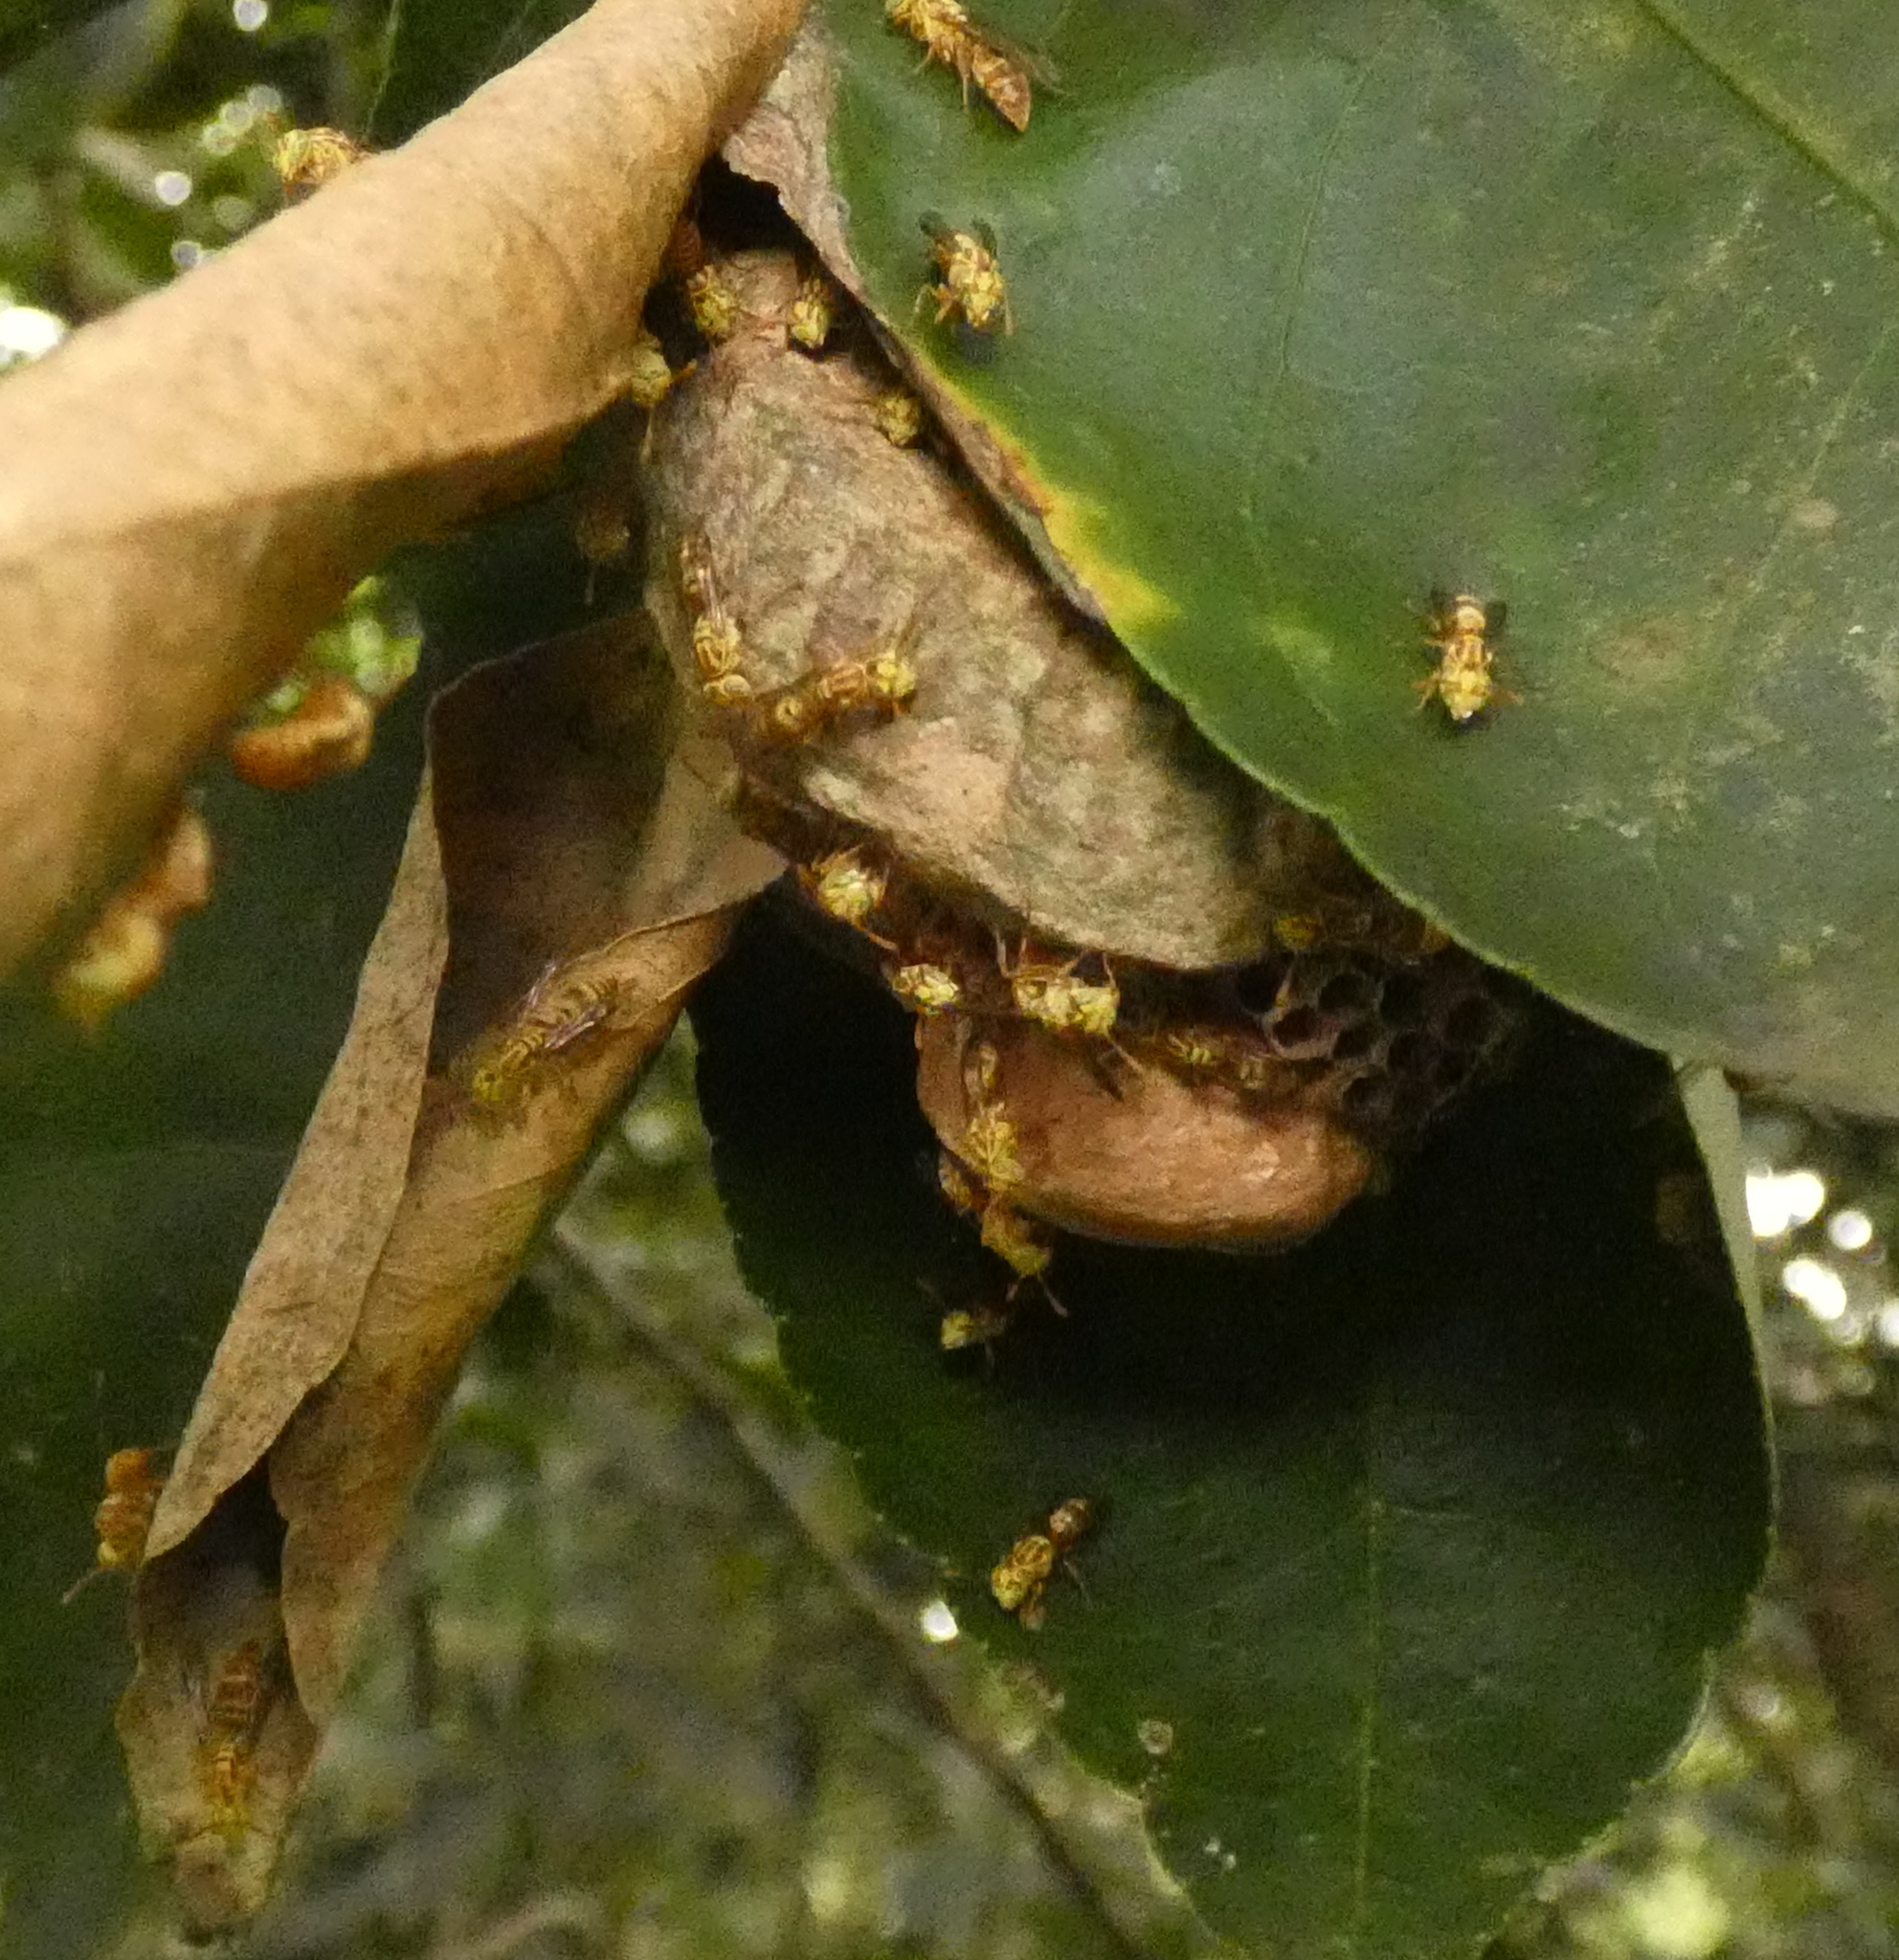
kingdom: Animalia
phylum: Arthropoda
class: Insecta
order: Hymenoptera
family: Vespidae
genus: Protopolybia
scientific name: Protopolybia potiguara
